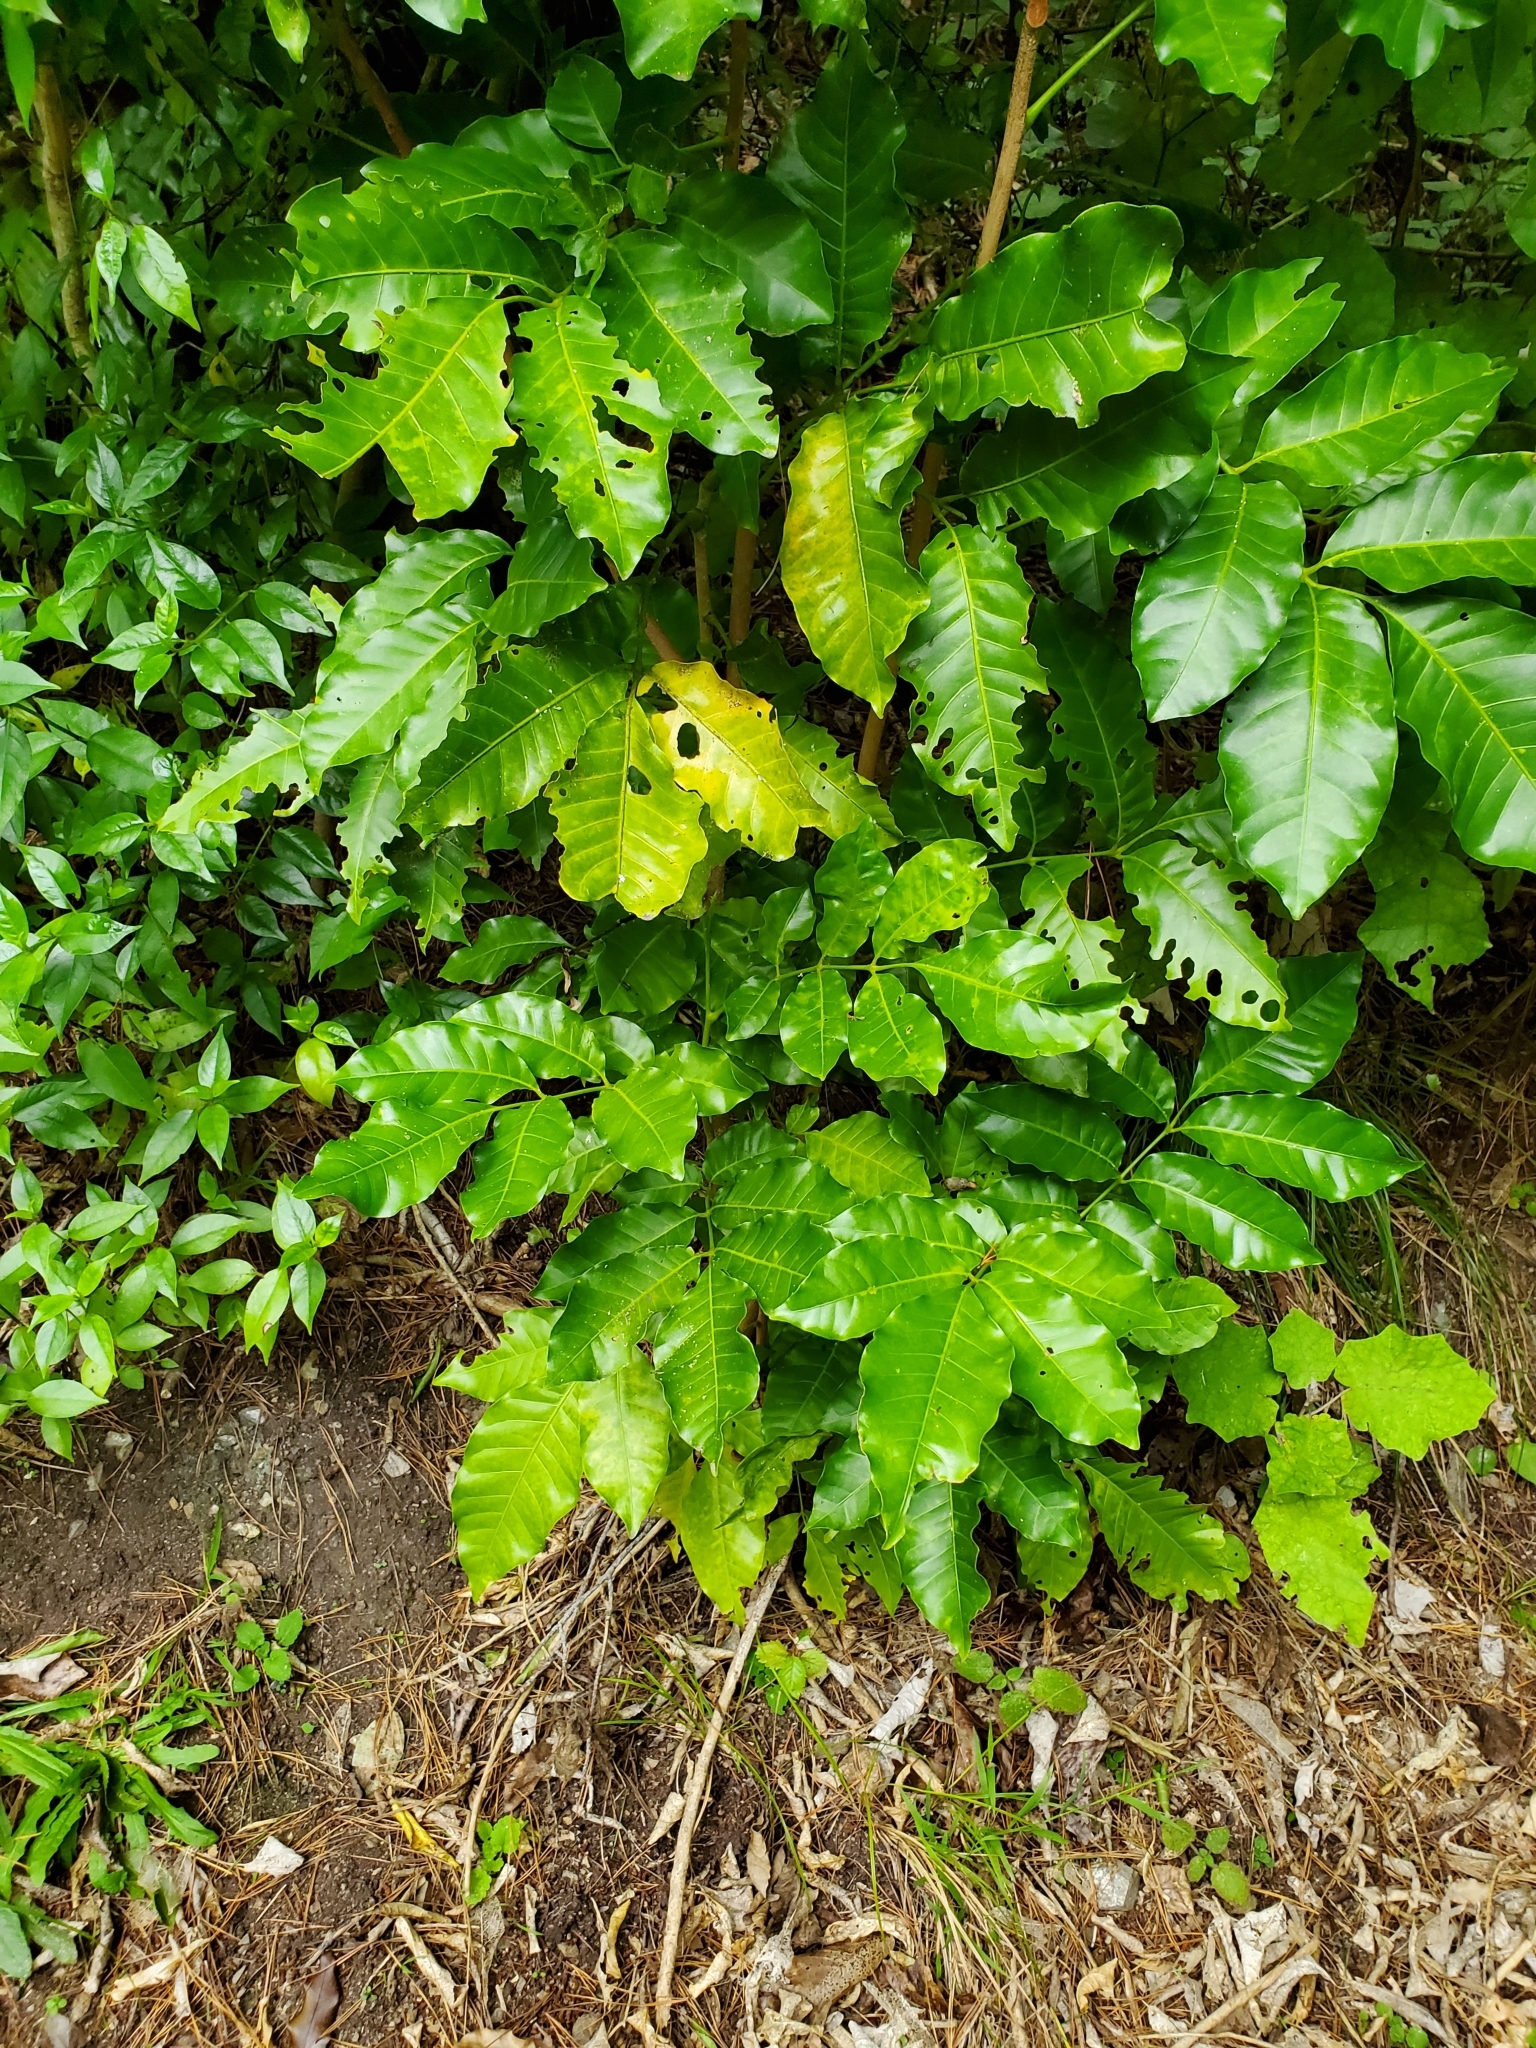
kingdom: Plantae
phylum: Tracheophyta
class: Magnoliopsida
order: Sapindales
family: Meliaceae
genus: Didymocheton
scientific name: Didymocheton spectabilis
